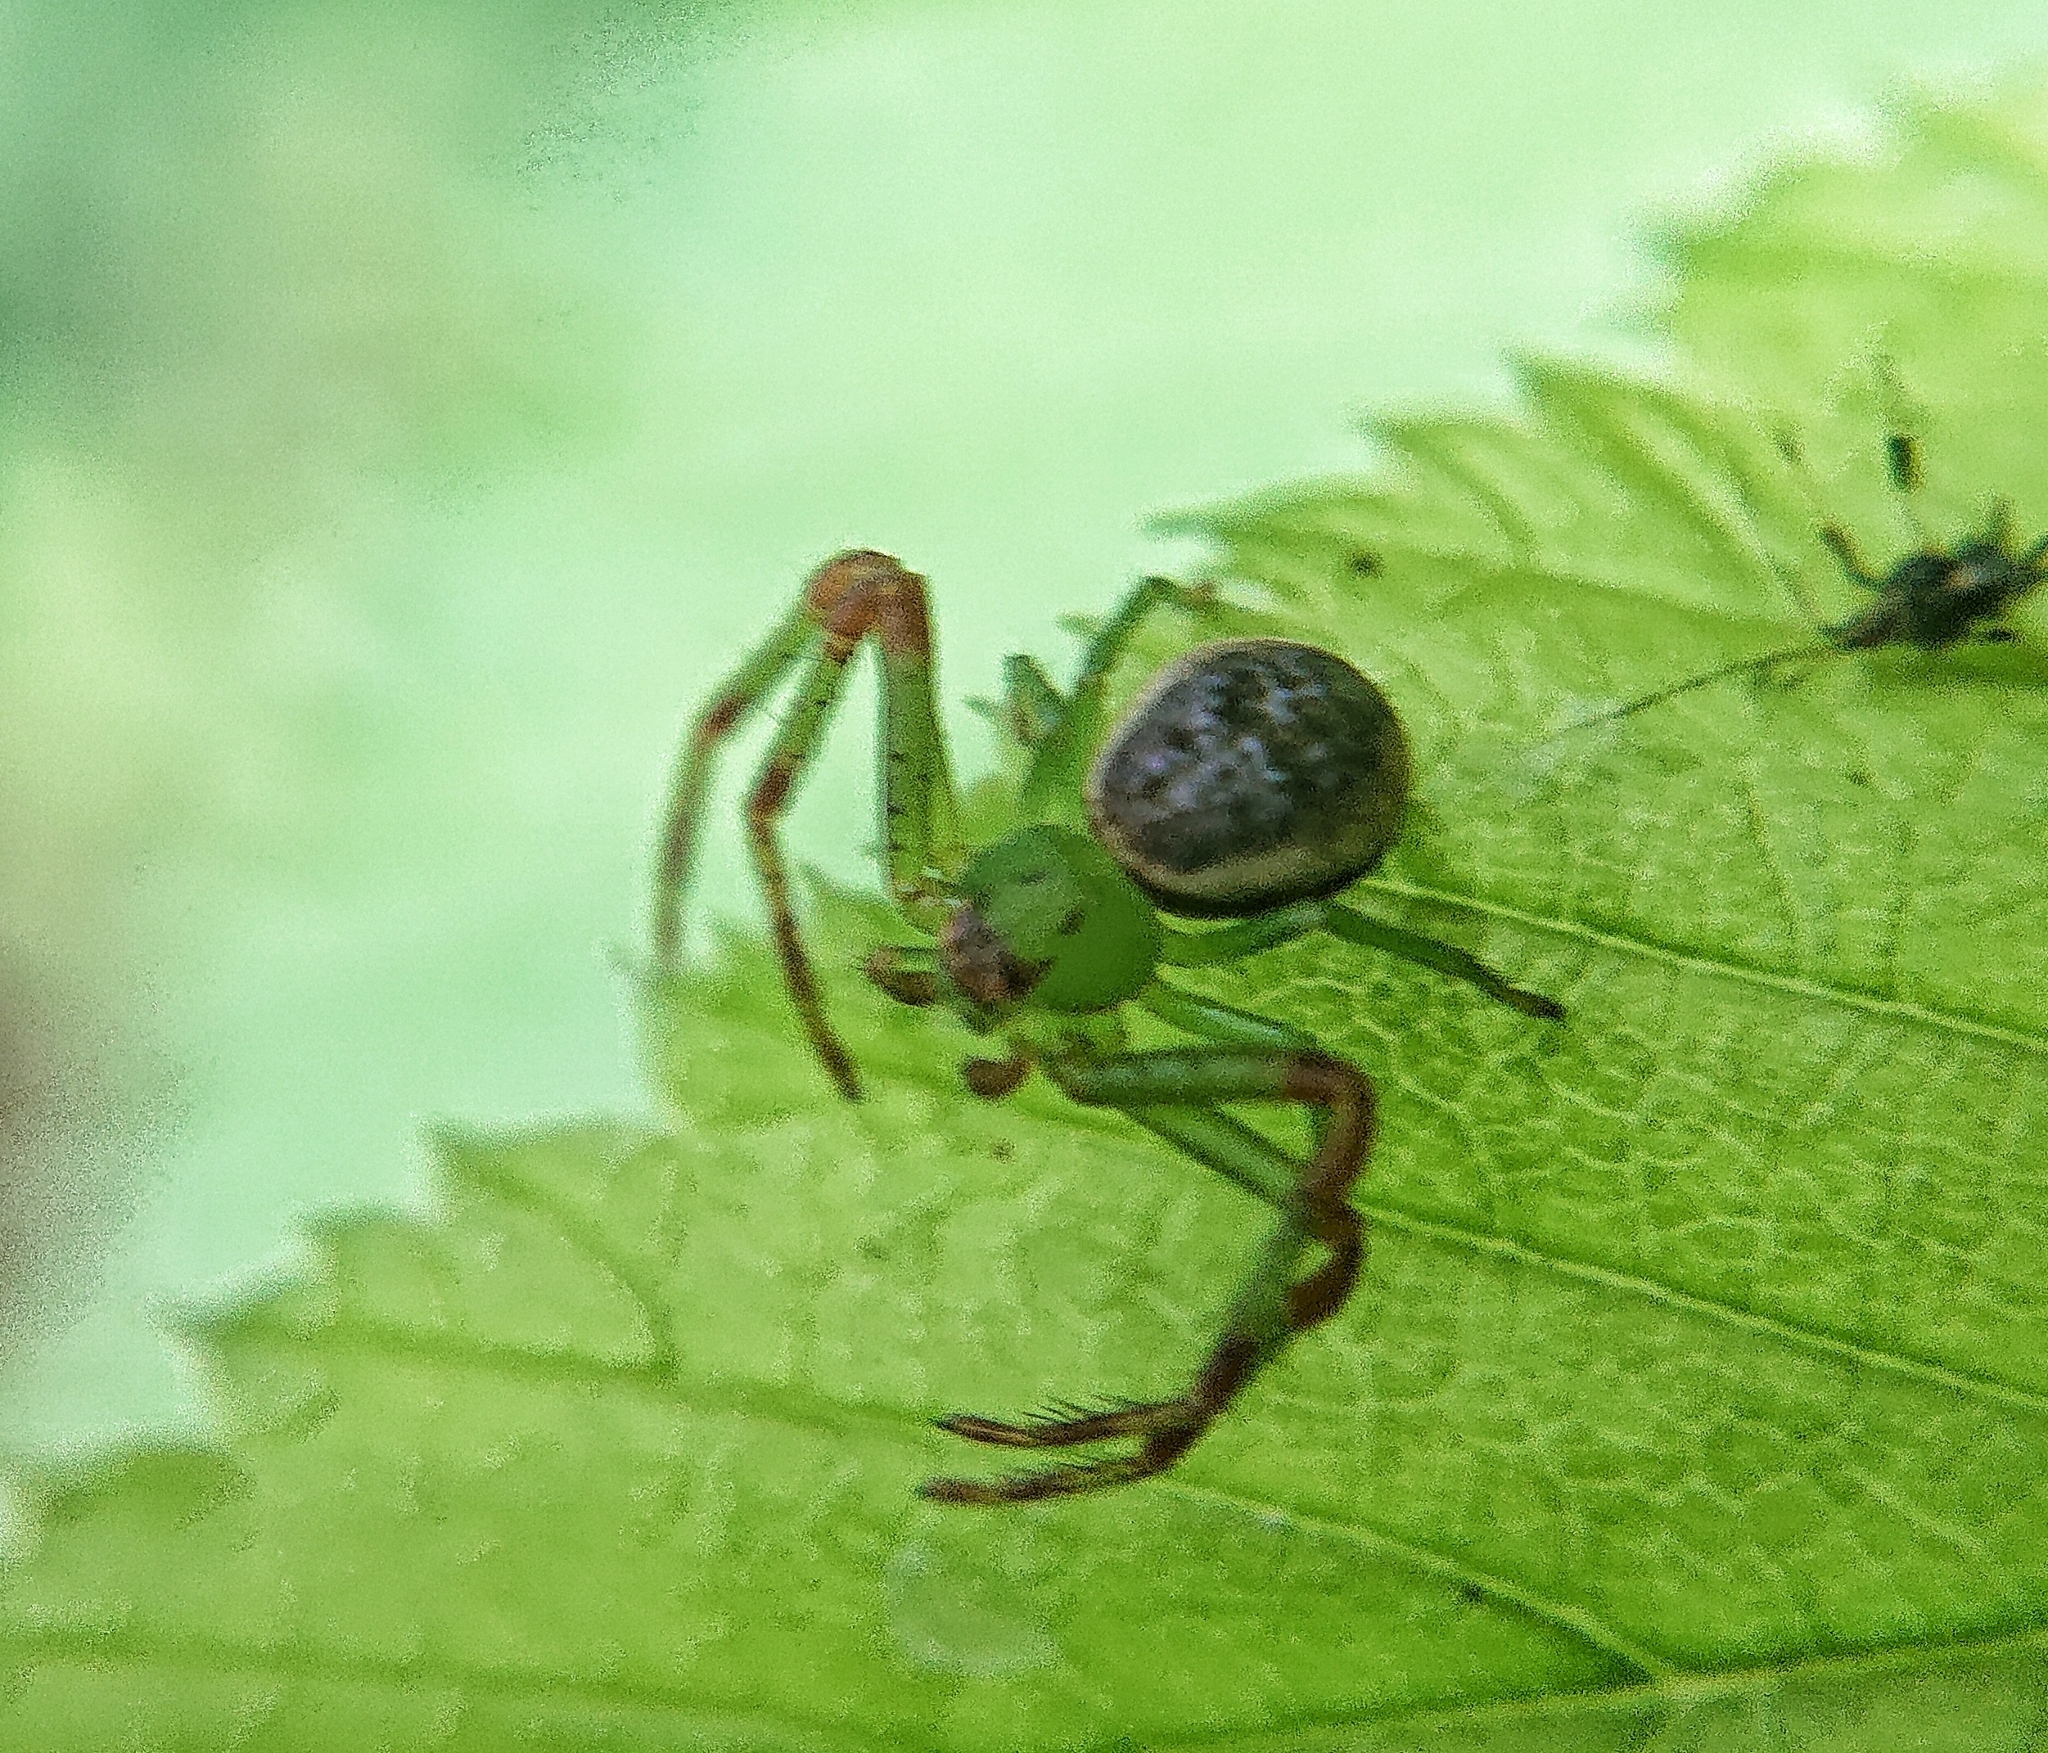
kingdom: Animalia
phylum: Arthropoda
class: Arachnida
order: Araneae
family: Thomisidae
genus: Diaea
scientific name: Diaea dorsata
